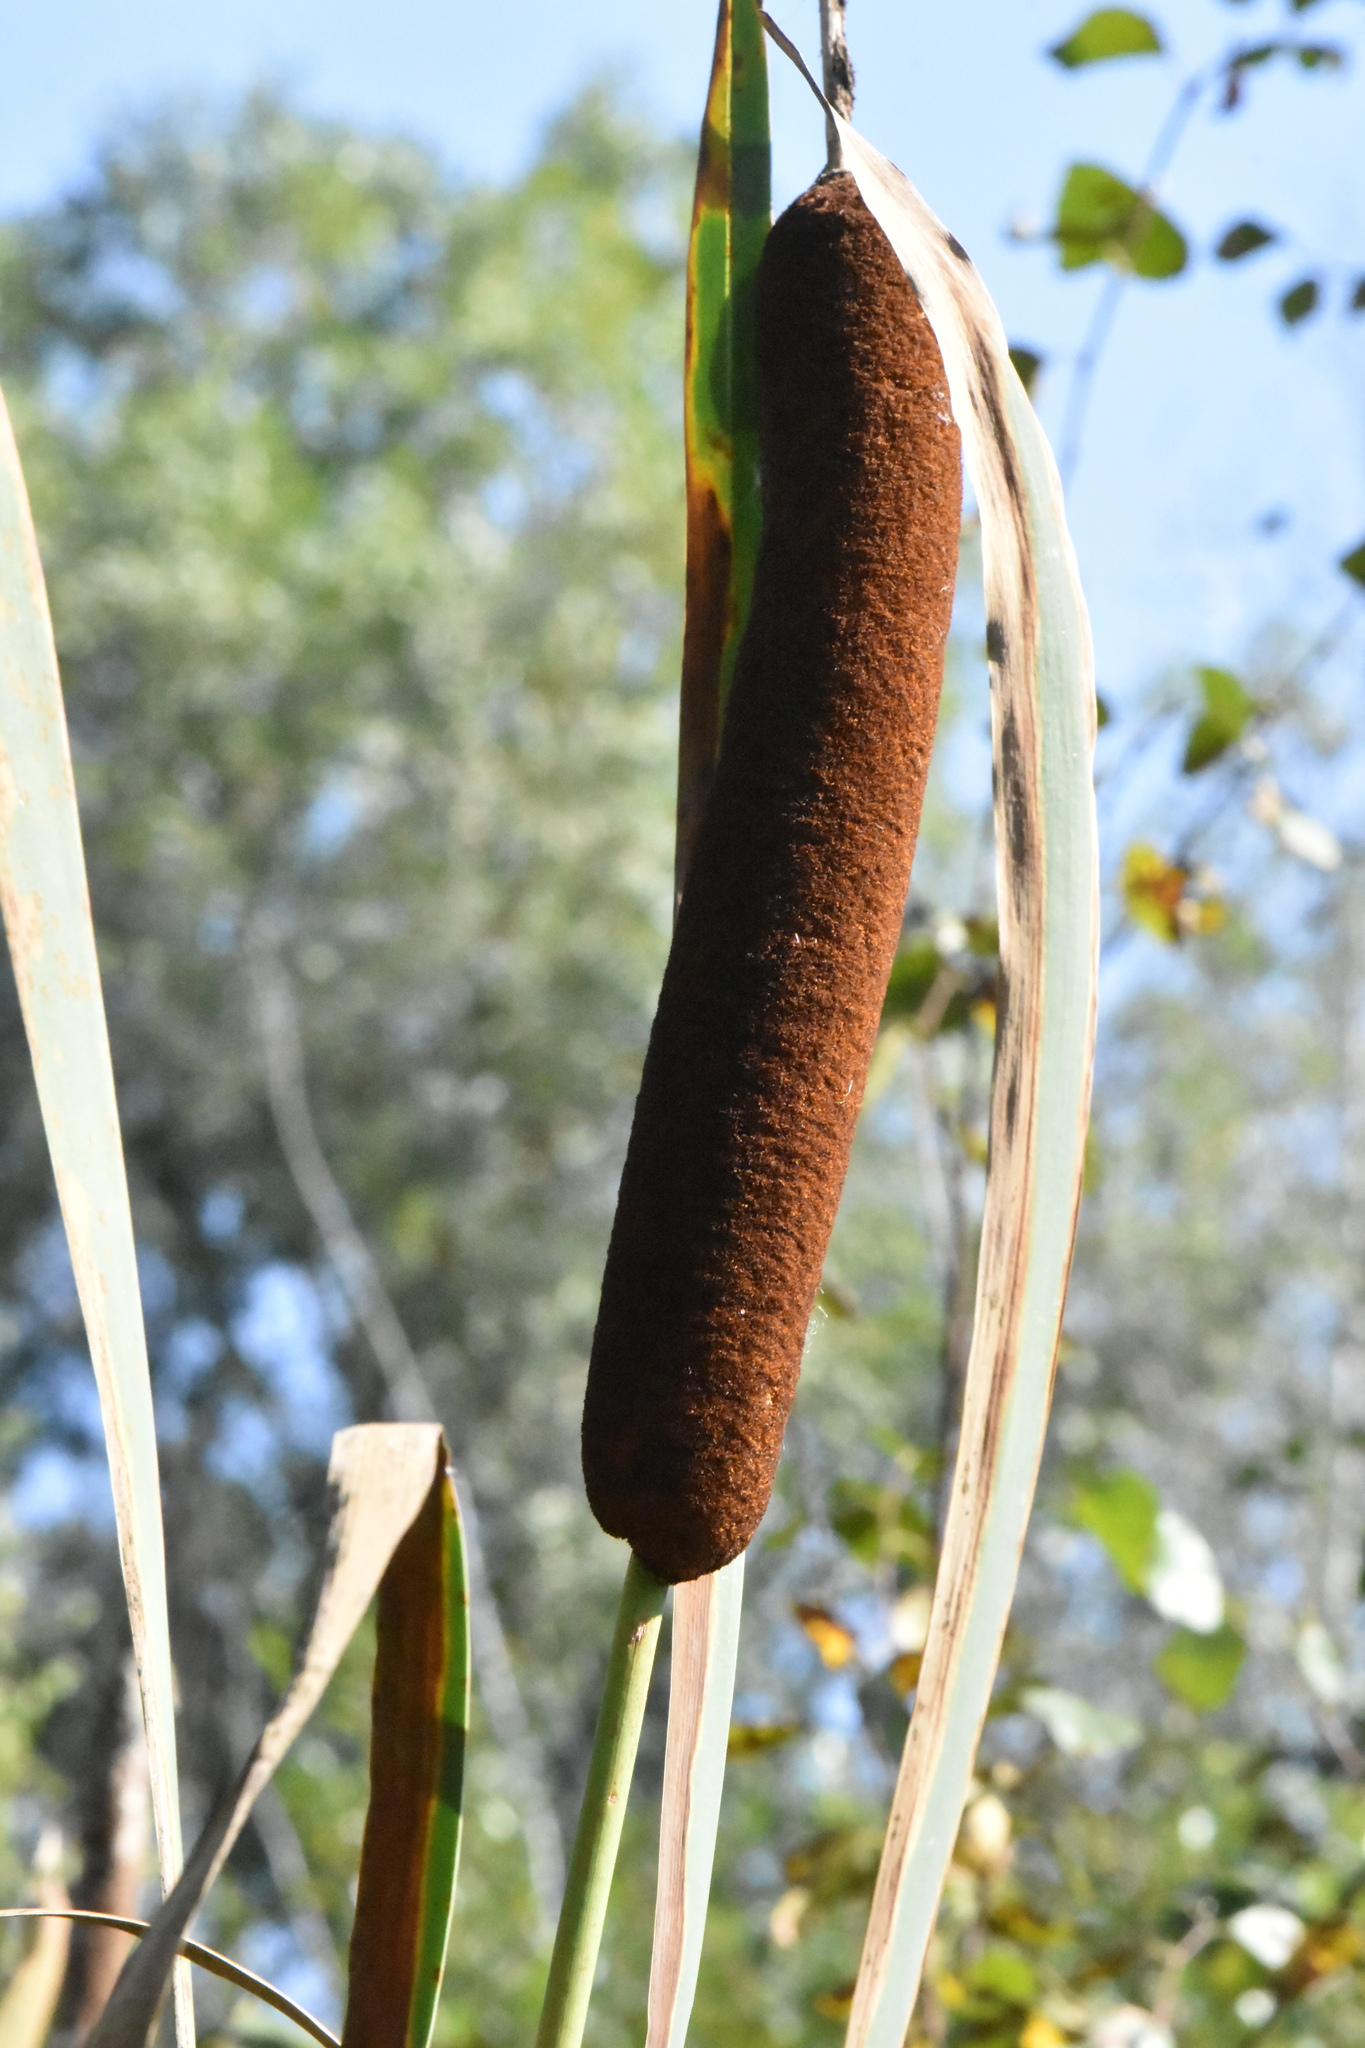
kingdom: Plantae
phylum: Tracheophyta
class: Liliopsida
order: Poales
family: Typhaceae
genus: Typha
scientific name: Typha latifolia
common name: Broadleaf cattail
